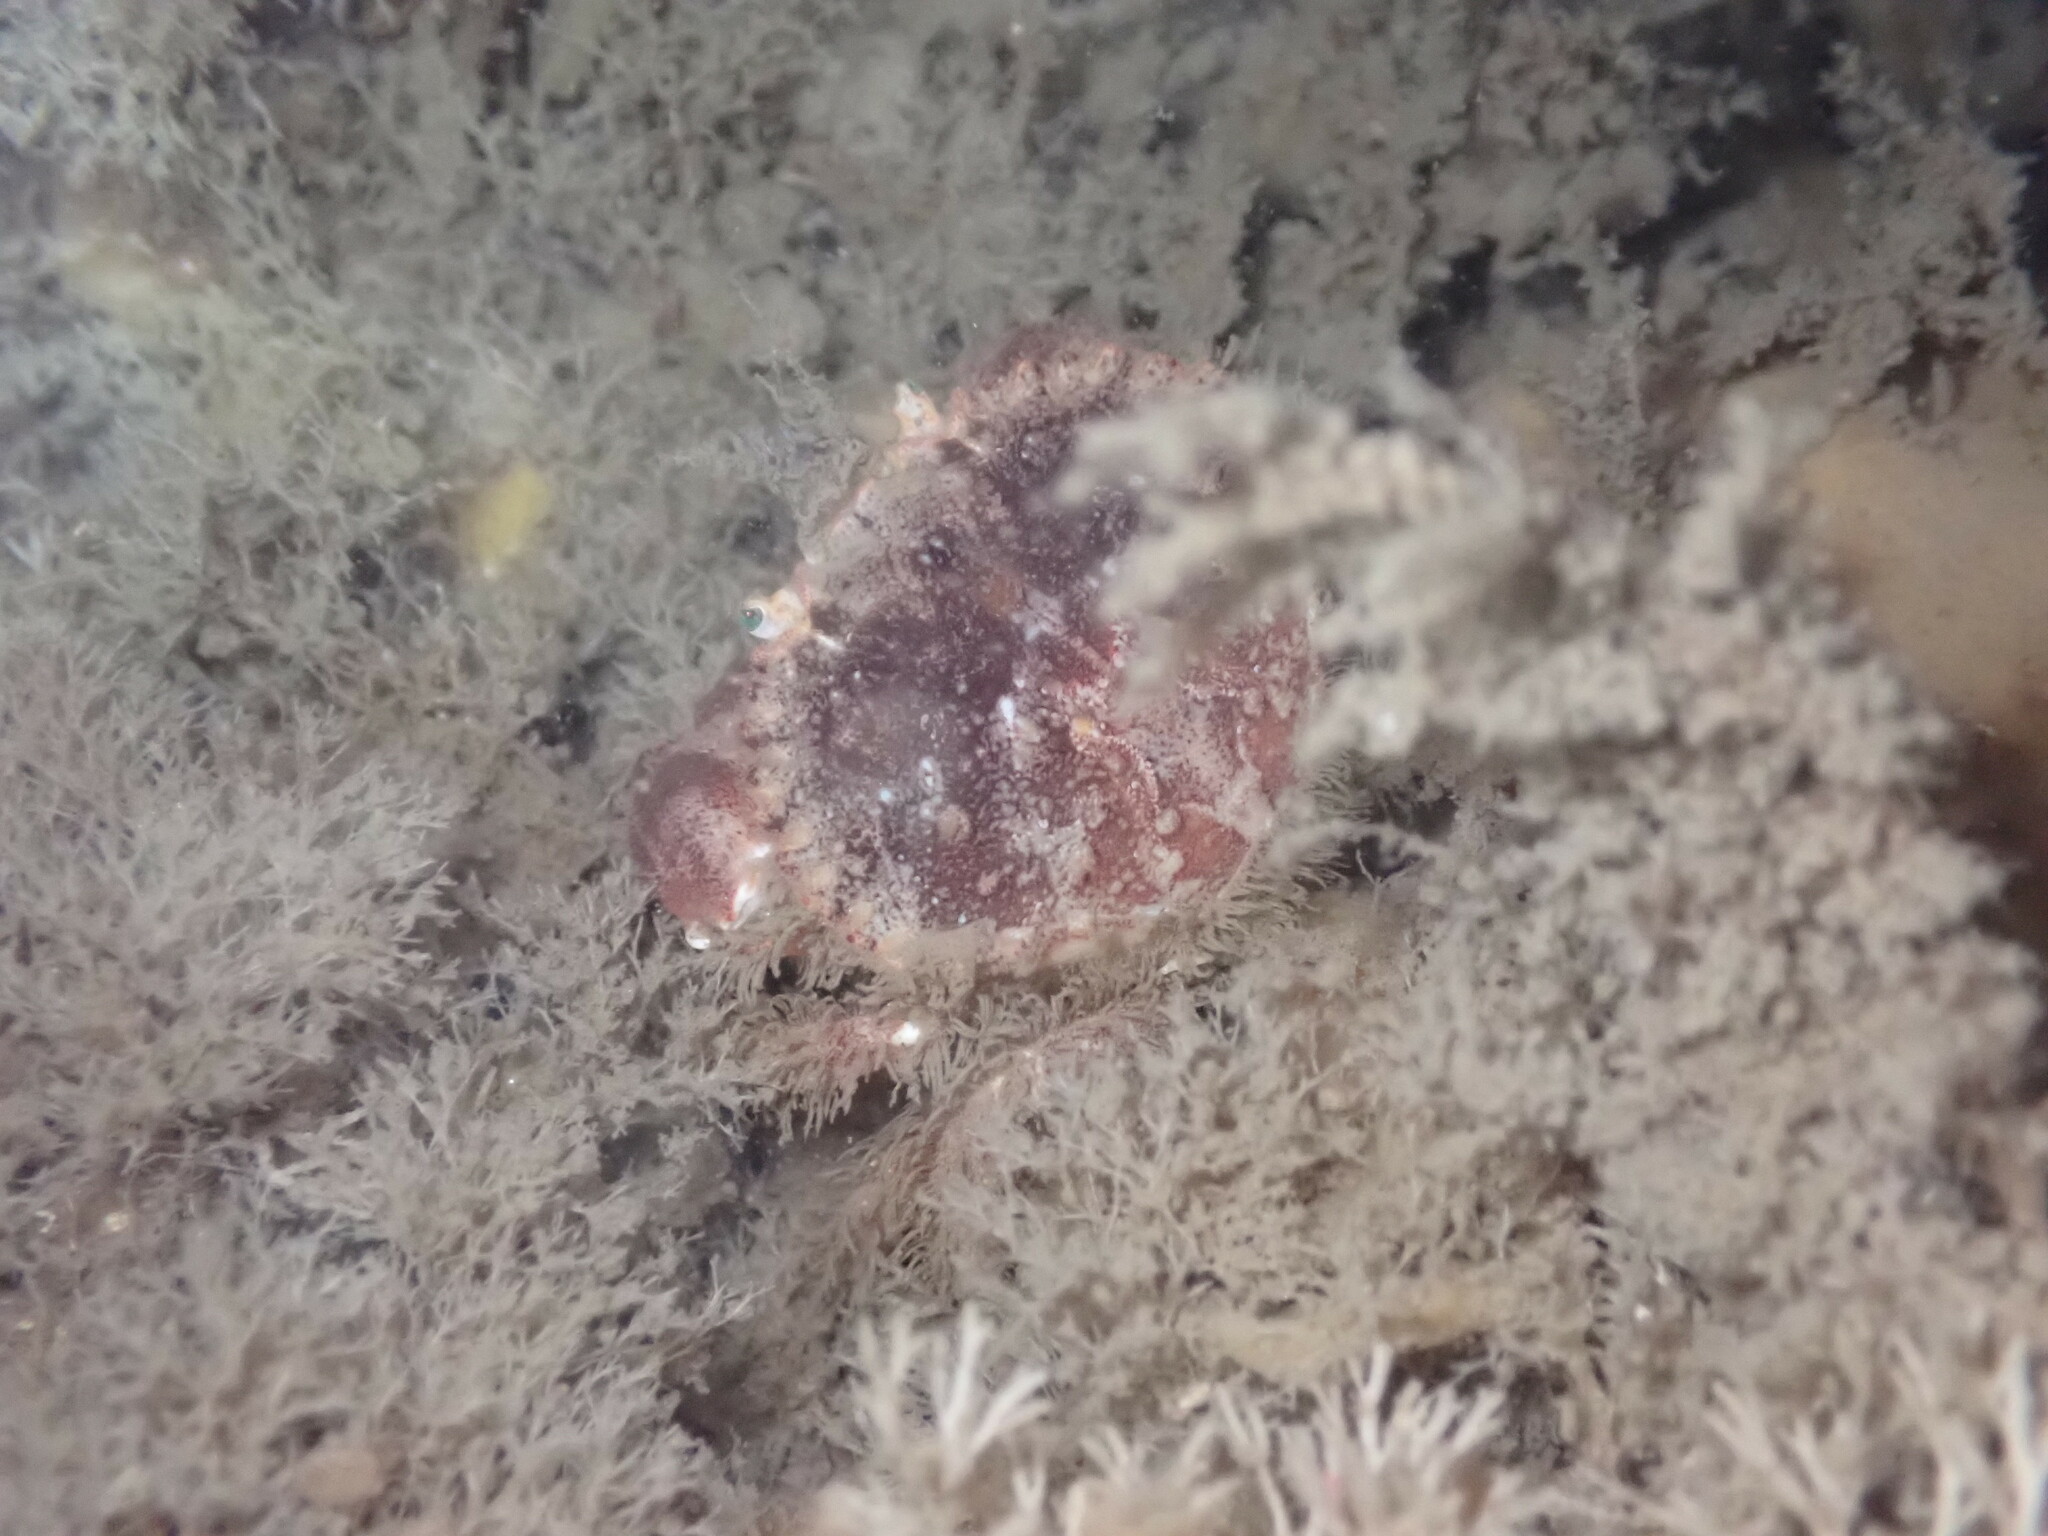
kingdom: Animalia
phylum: Arthropoda
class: Malacostraca
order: Decapoda
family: Cancridae
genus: Glebocarcinus
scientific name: Glebocarcinus oregonensis
